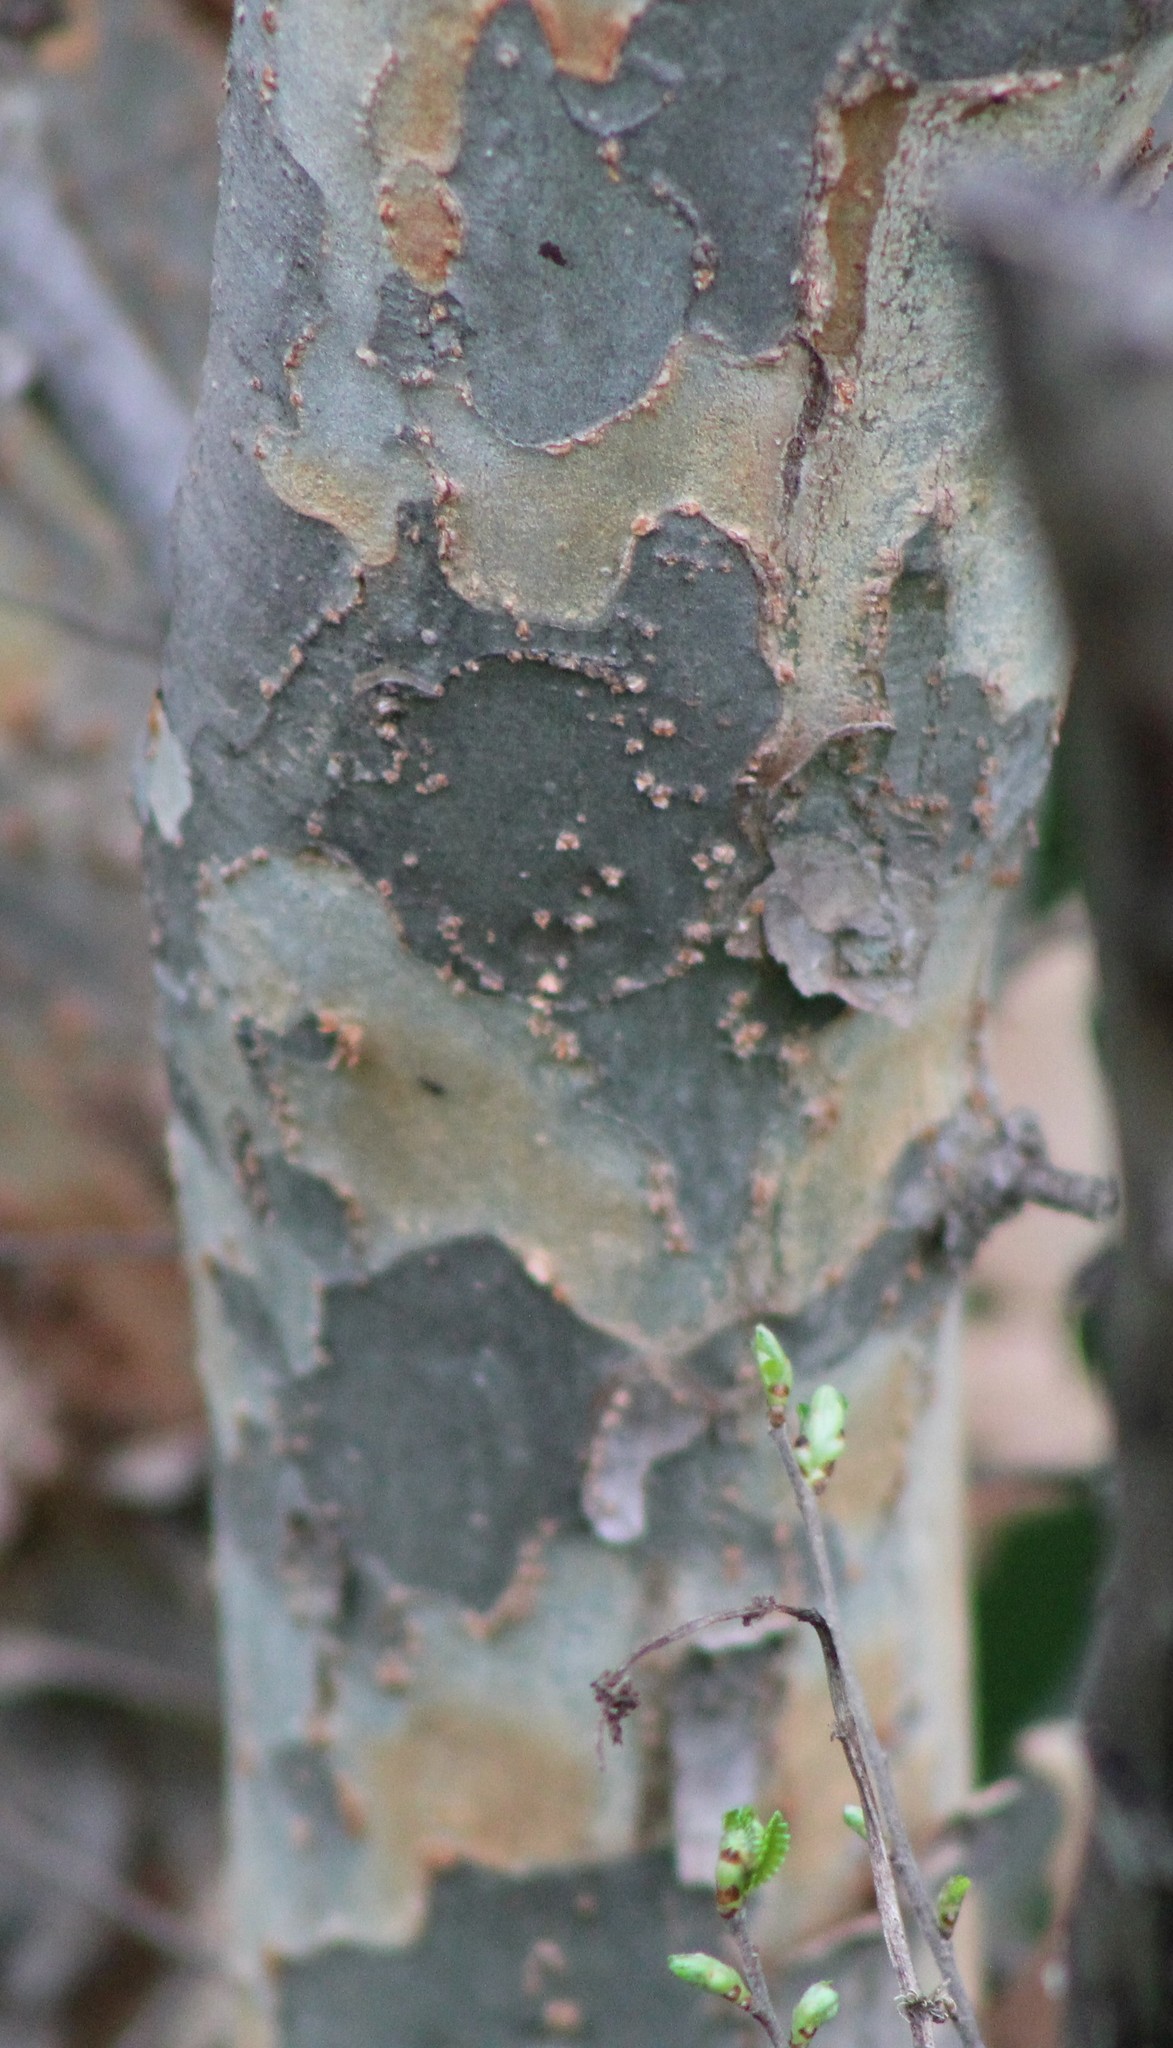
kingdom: Plantae
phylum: Tracheophyta
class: Magnoliopsida
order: Rosales
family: Ulmaceae
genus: Ulmus
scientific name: Ulmus parvifolia
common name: Chinese elm
